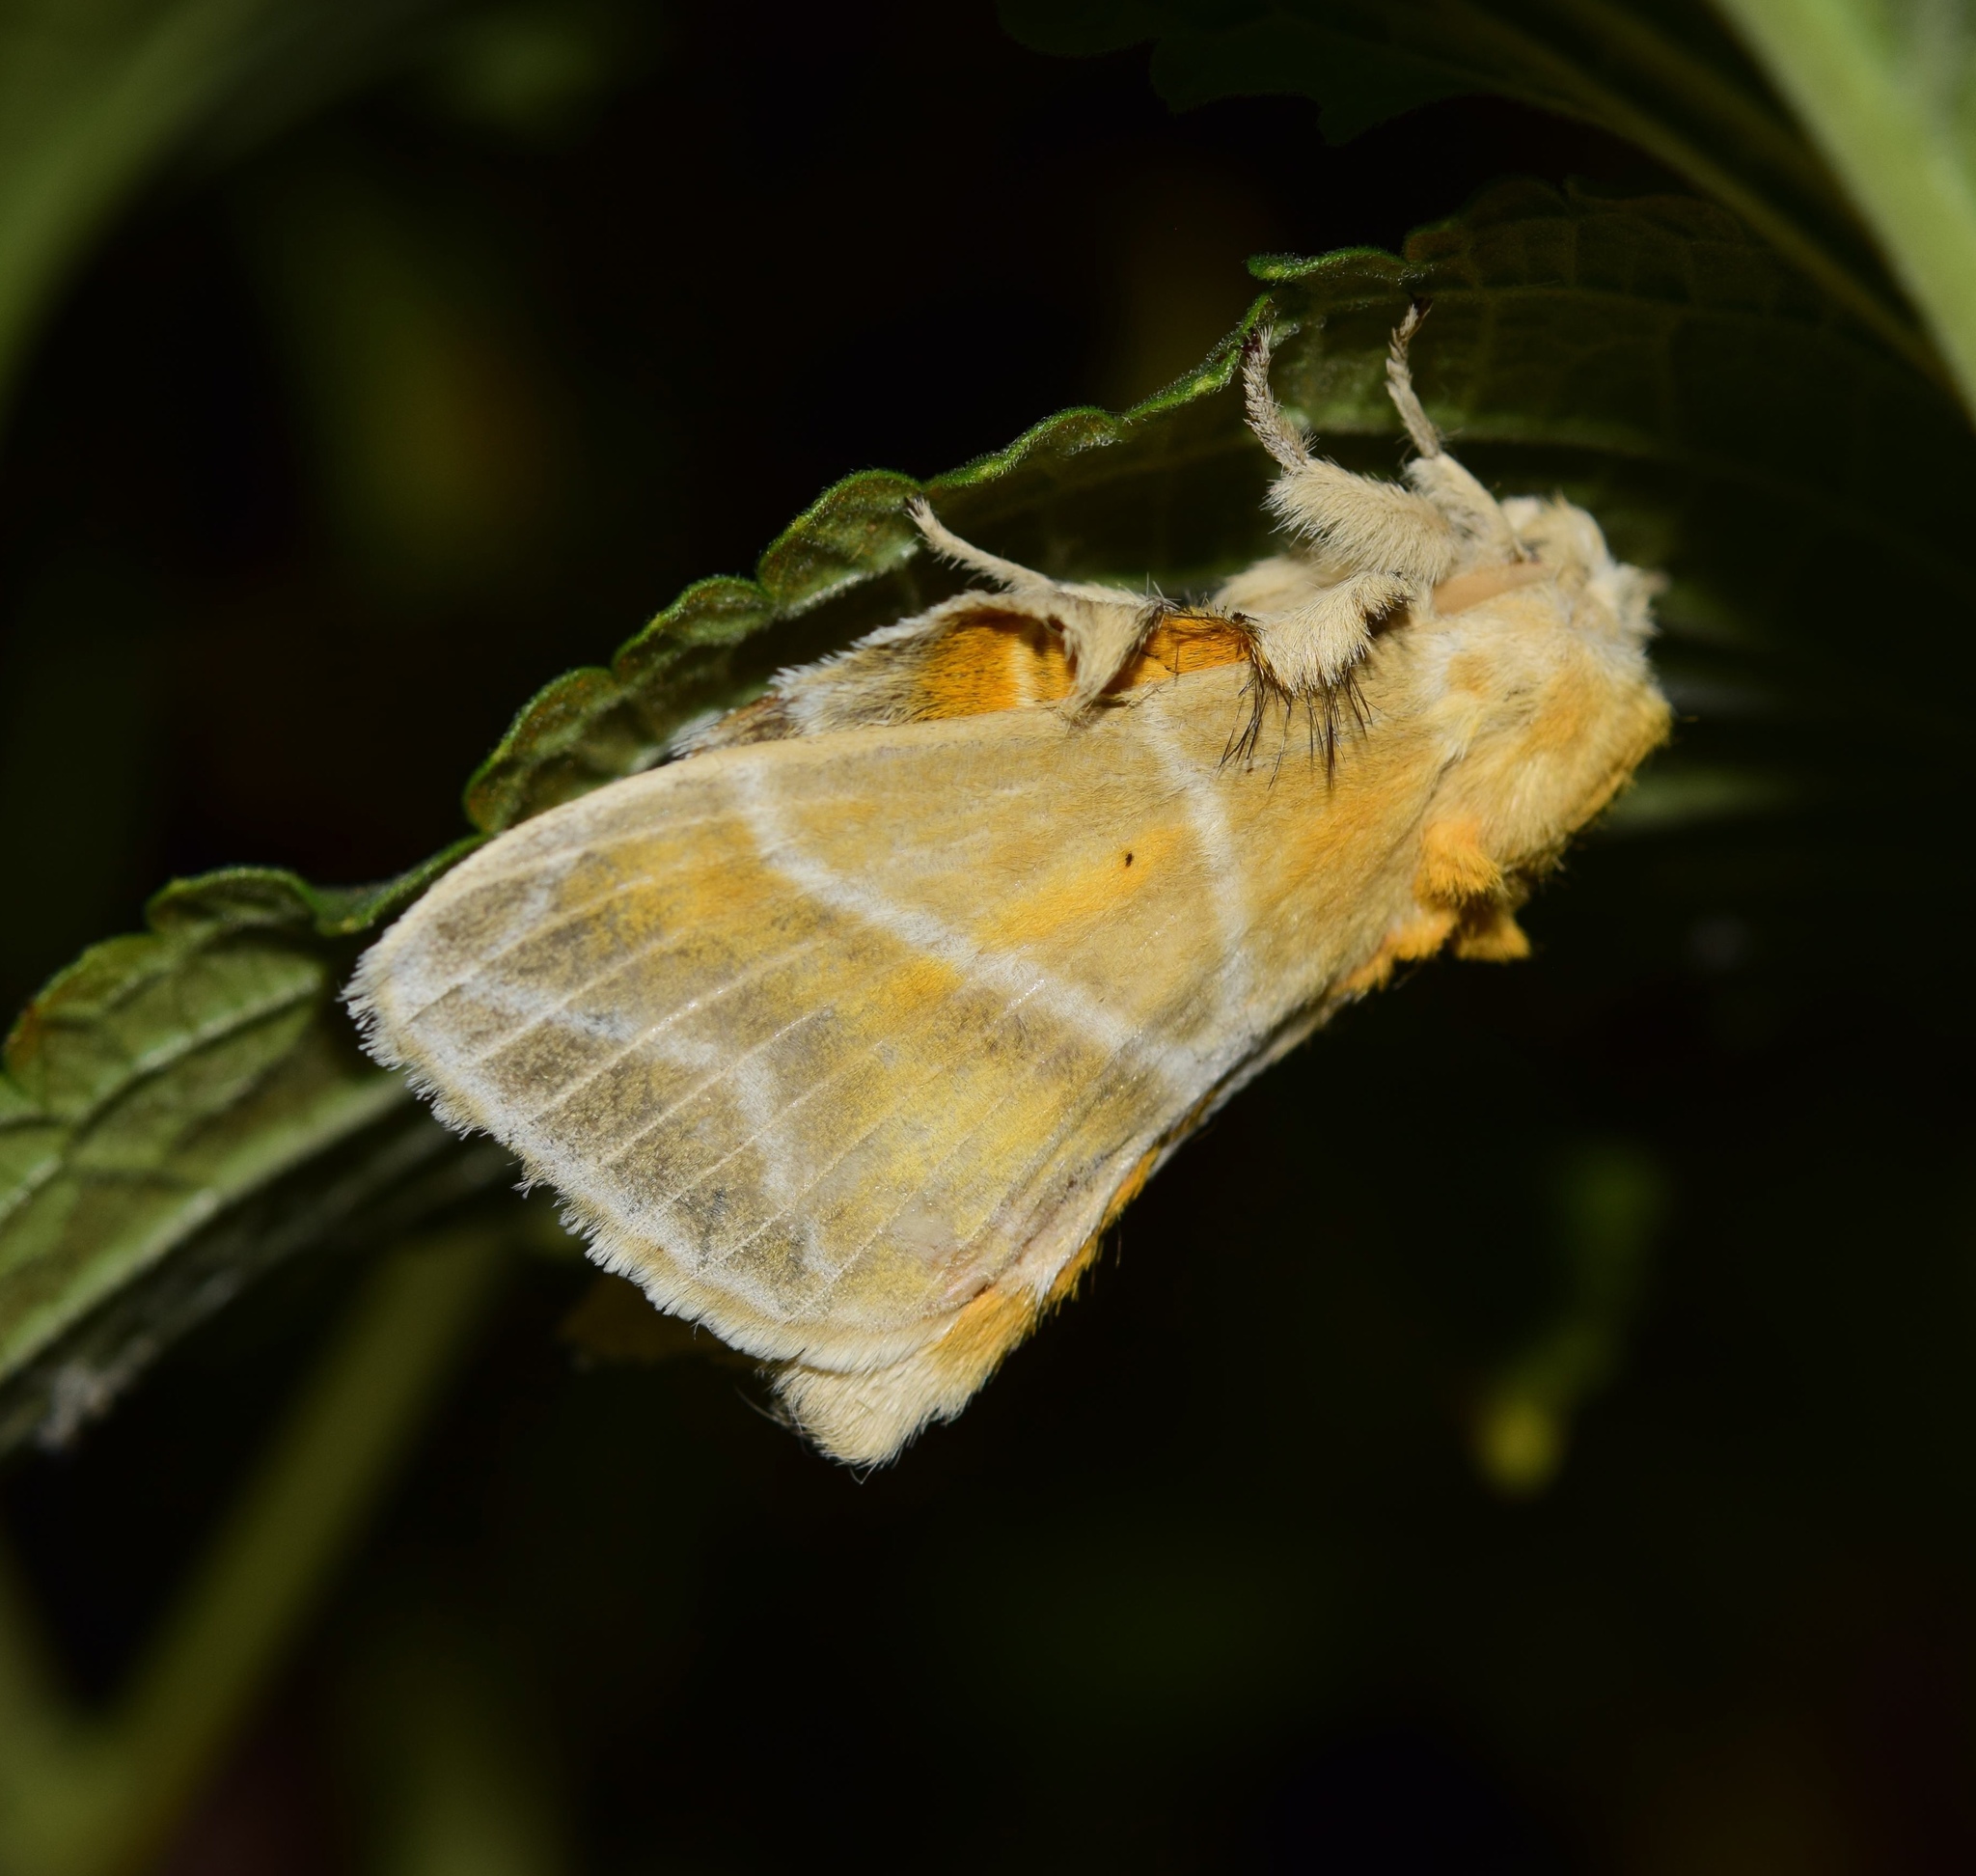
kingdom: Animalia
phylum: Arthropoda
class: Insecta
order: Lepidoptera
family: Lasiocampidae
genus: Eucraera
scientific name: Eucraera salammbo
